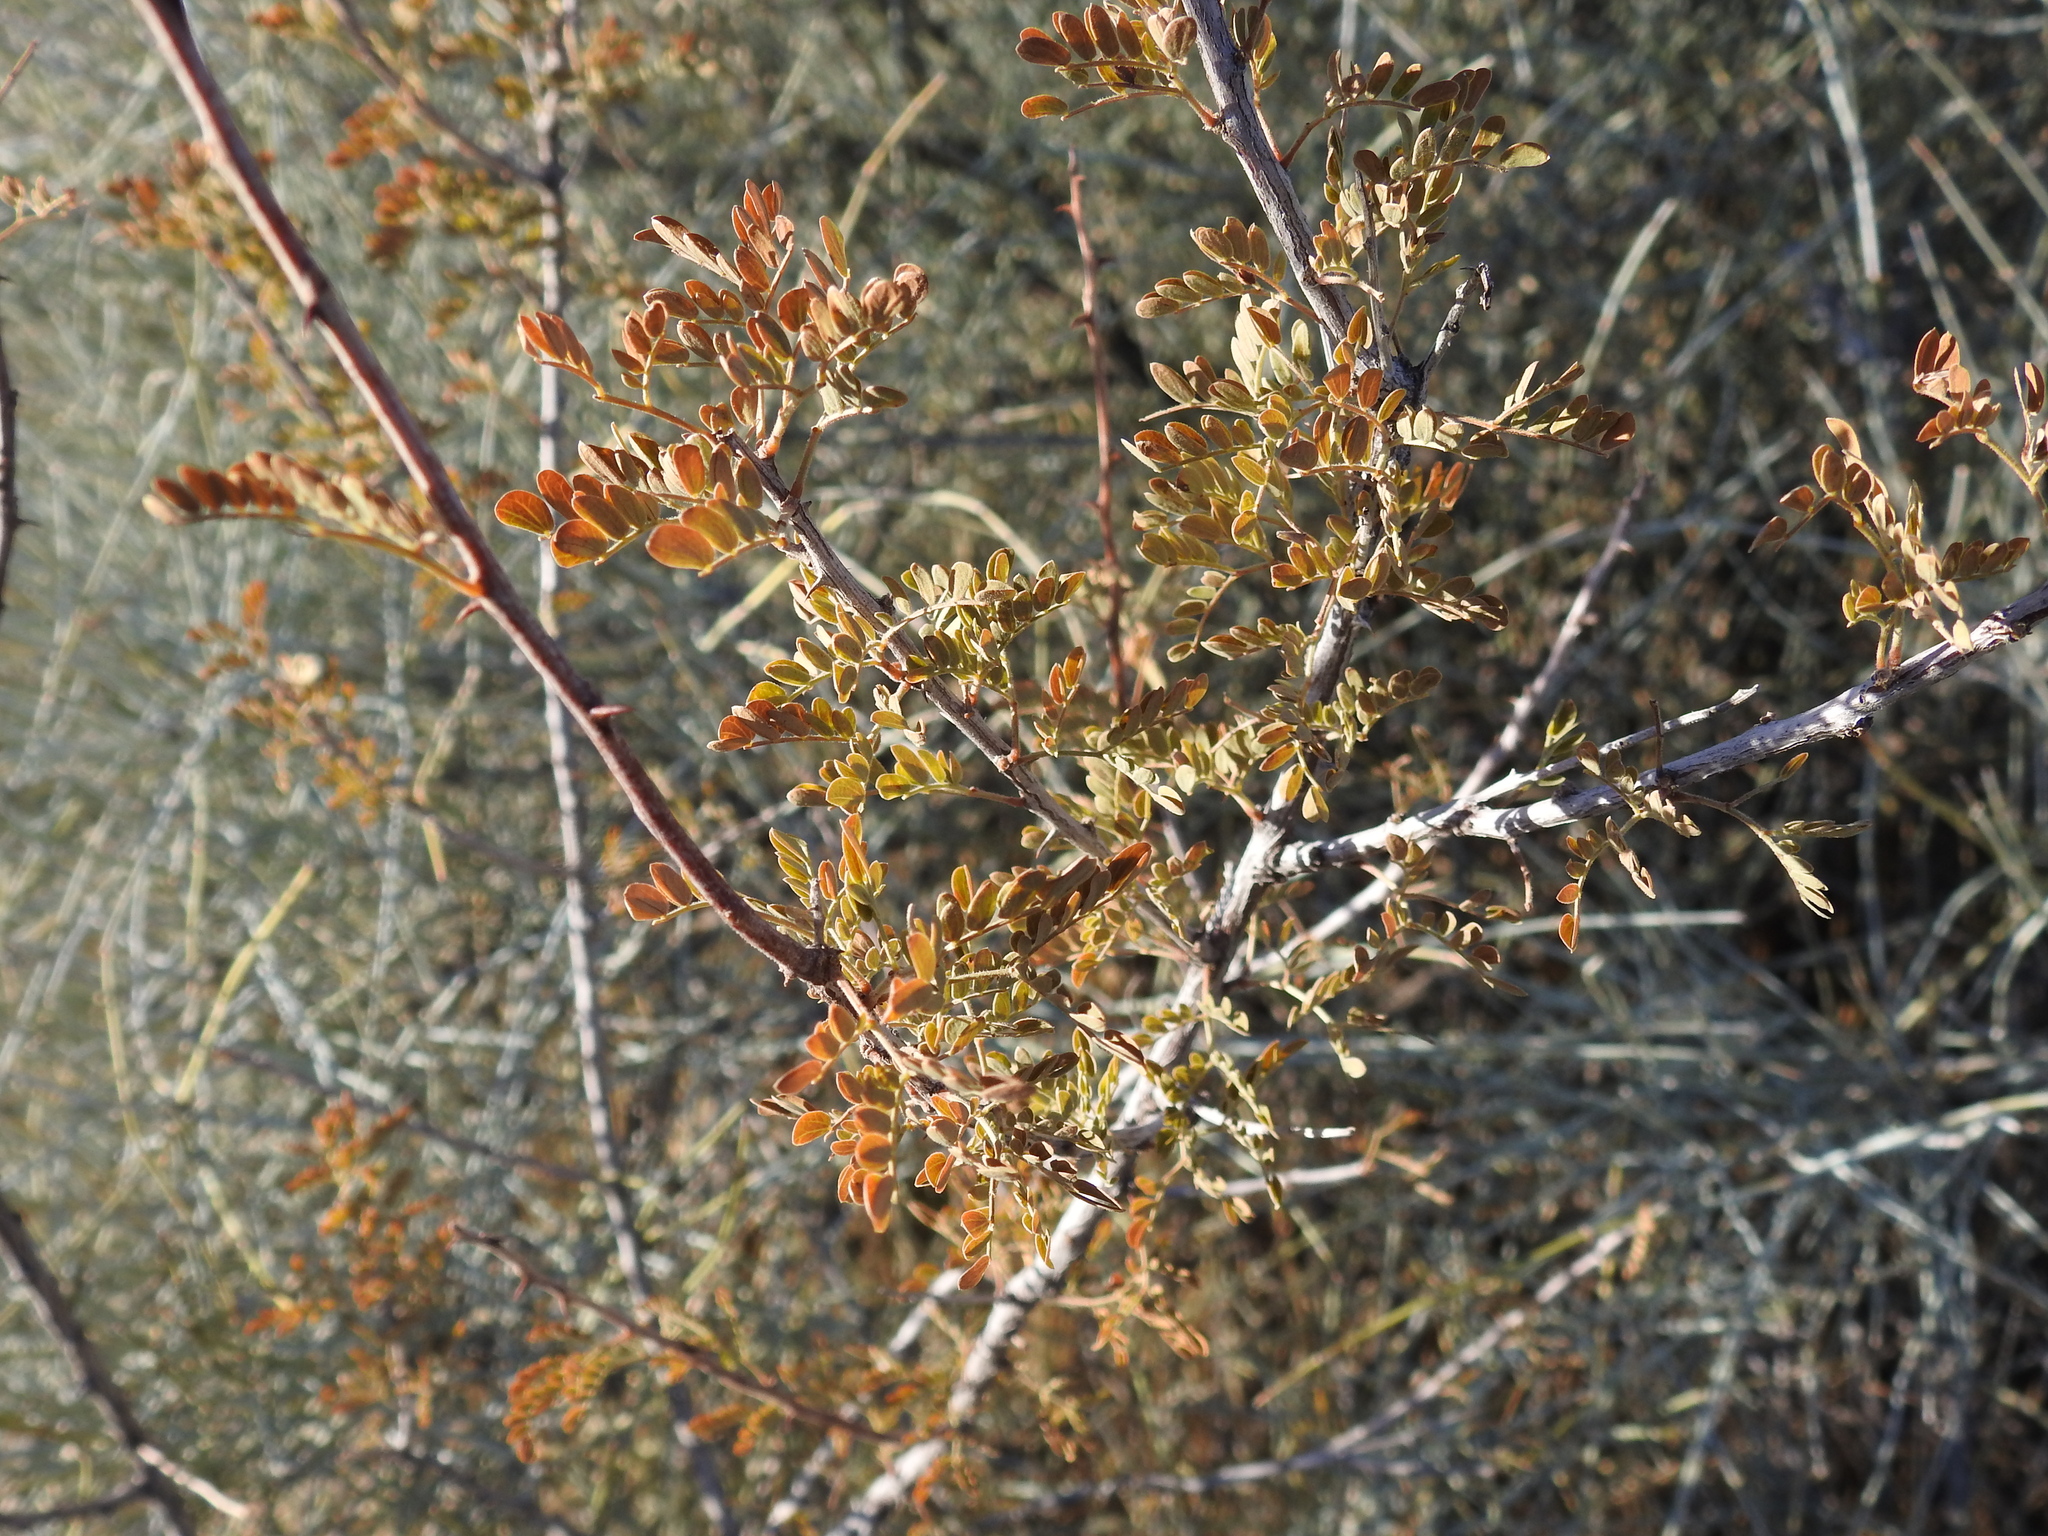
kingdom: Plantae
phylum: Tracheophyta
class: Magnoliopsida
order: Fabales
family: Fabaceae
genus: Senegalia
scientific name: Senegalia greggii
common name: Texas-mimosa
